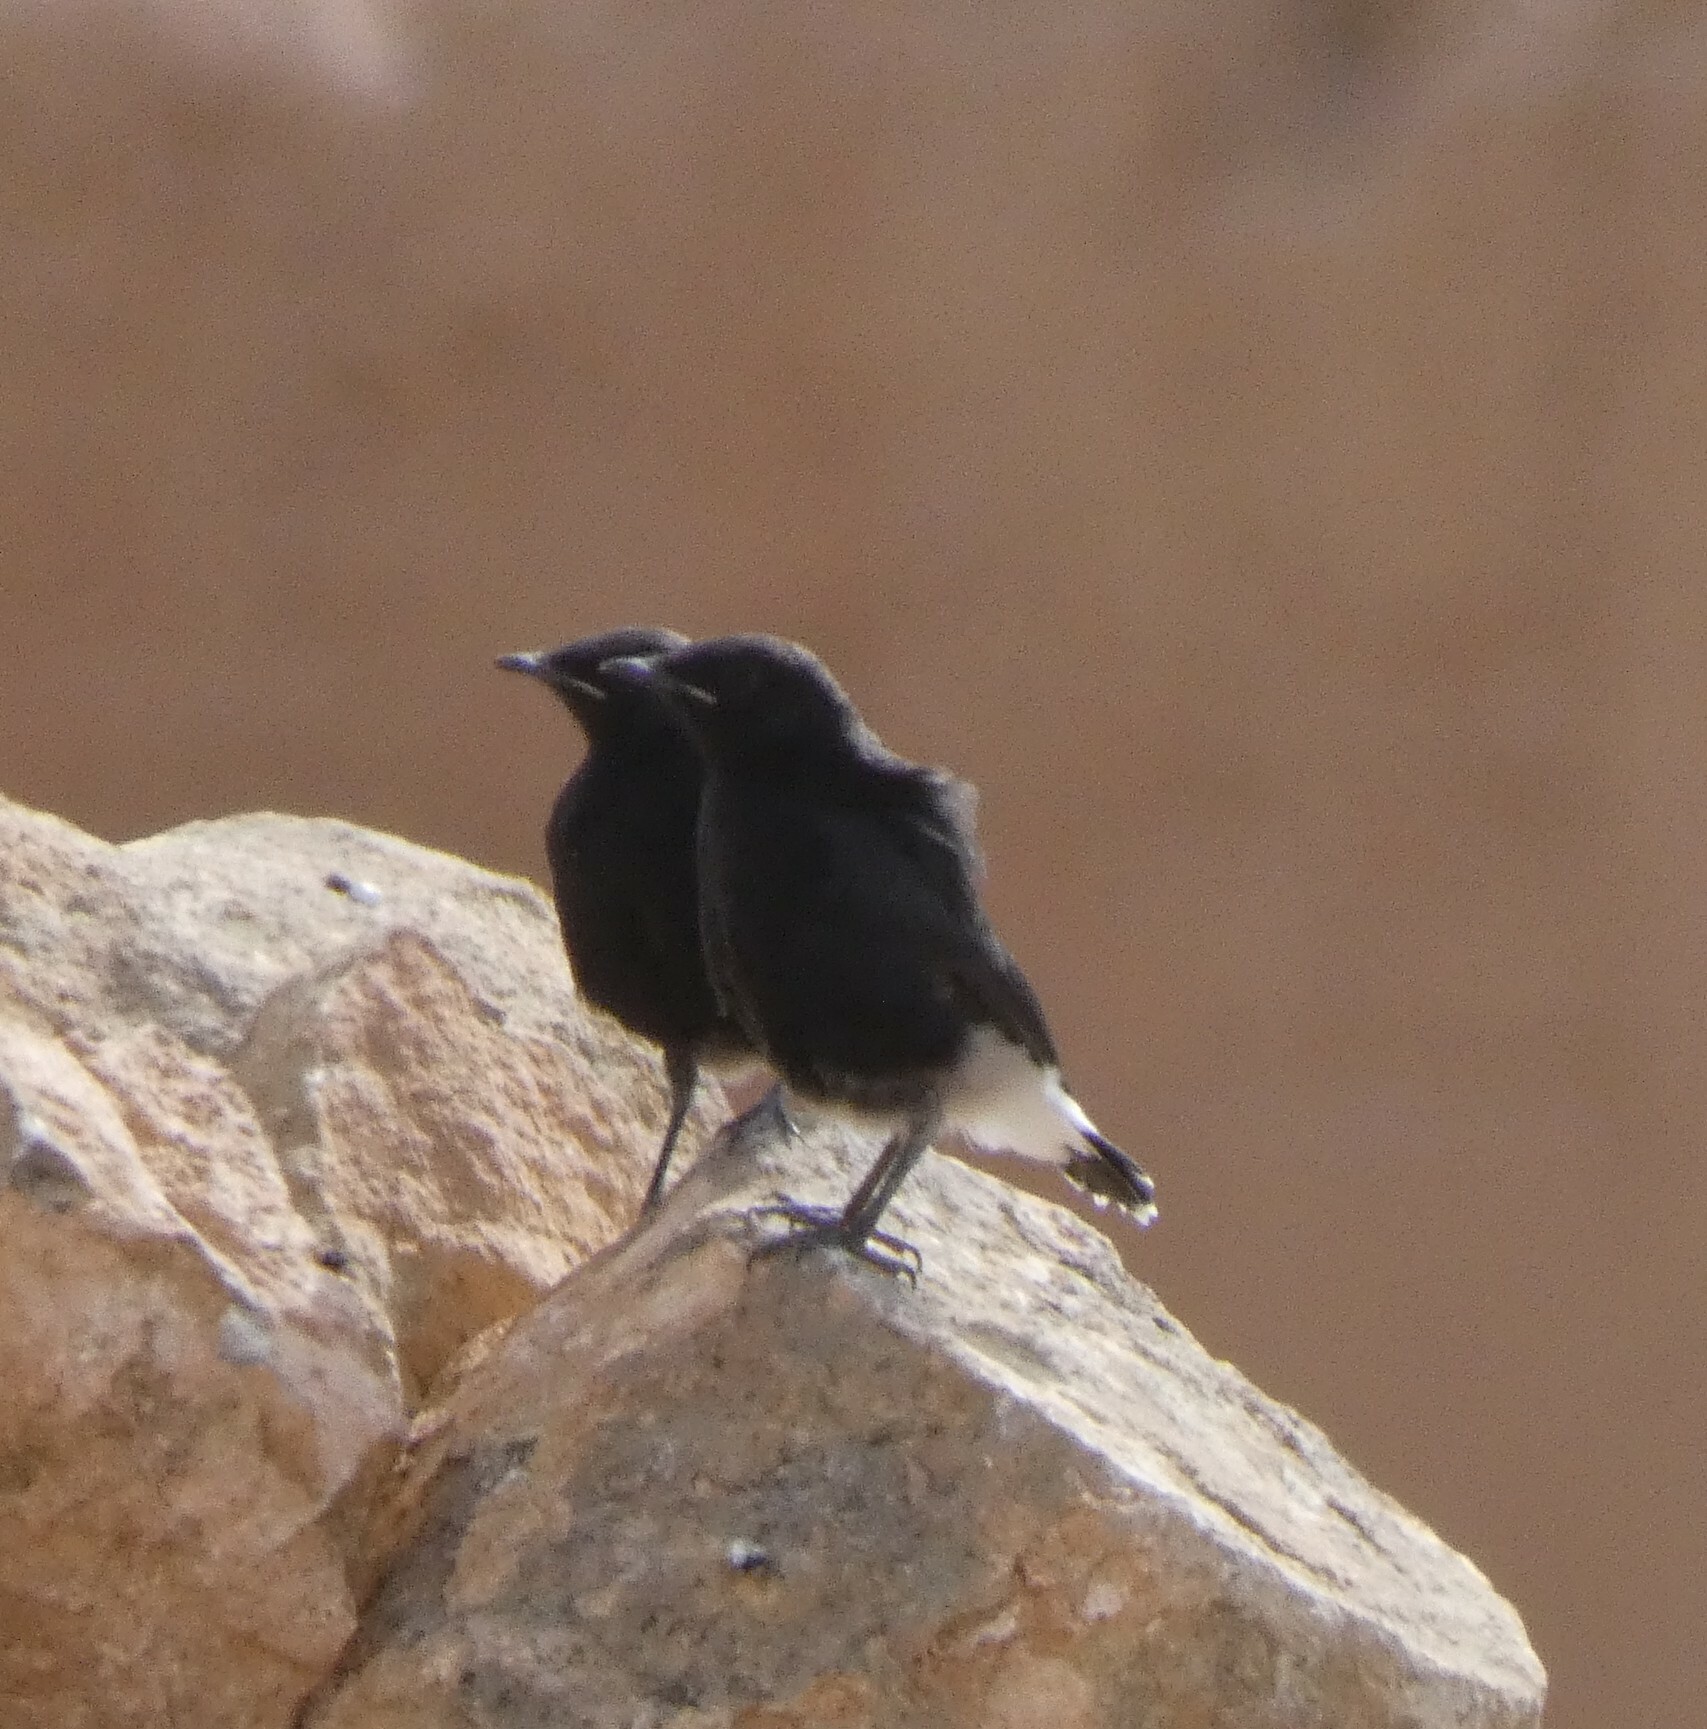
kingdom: Animalia
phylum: Chordata
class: Aves
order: Passeriformes
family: Muscicapidae
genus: Oenanthe
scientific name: Oenanthe leucopyga
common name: White-crowned wheatear
